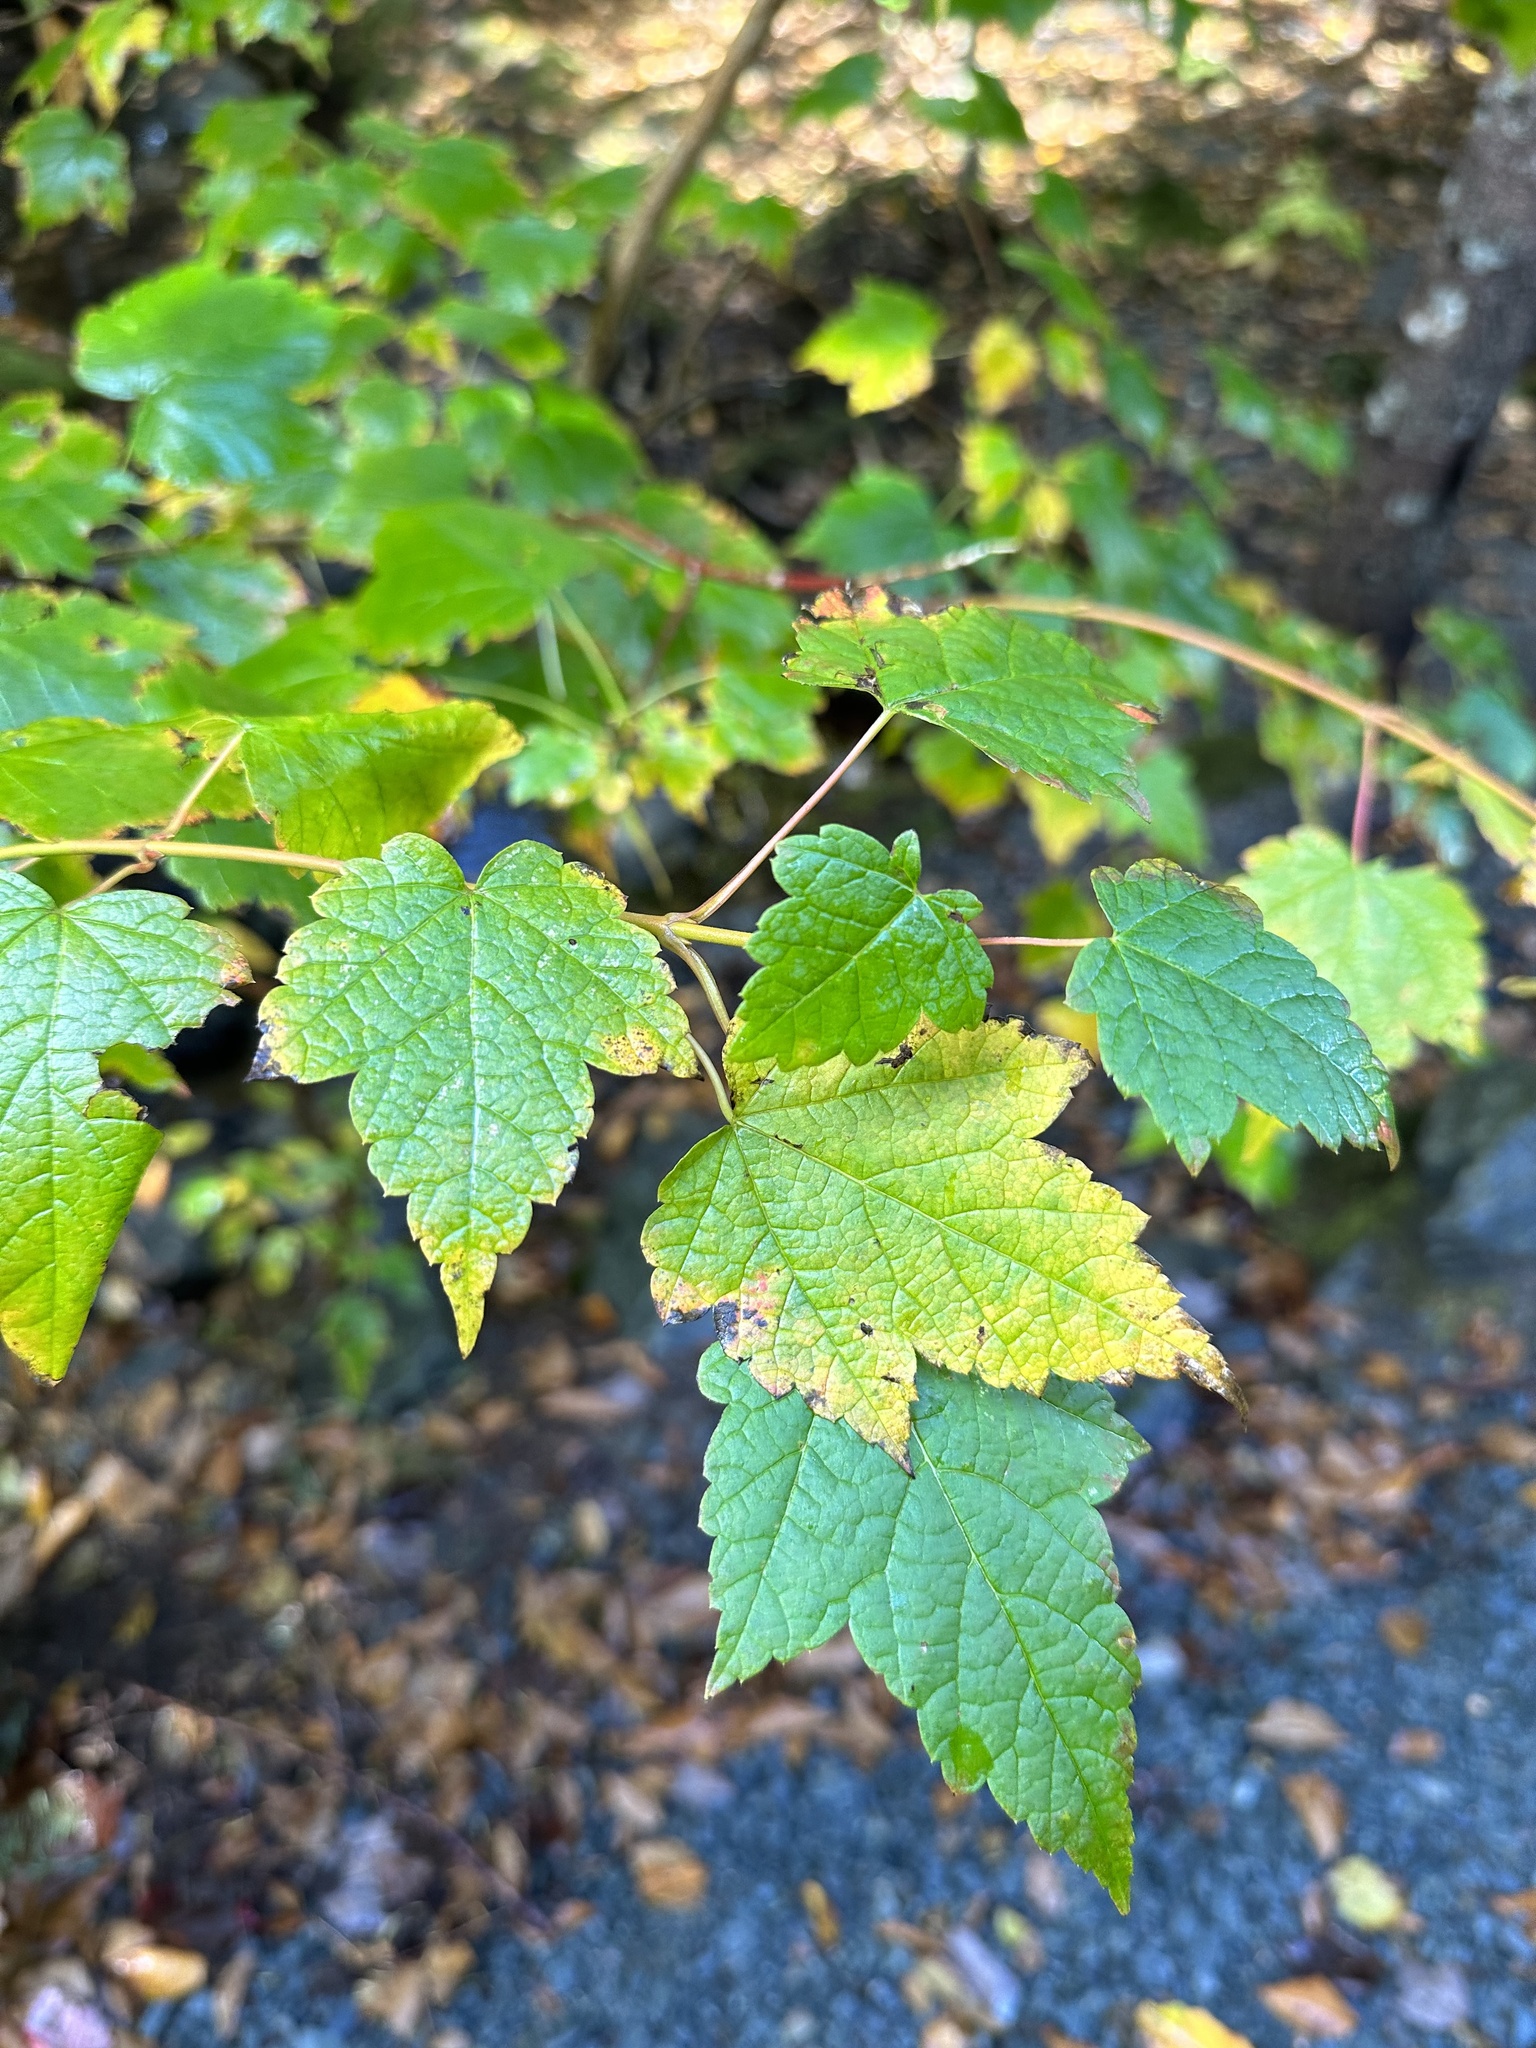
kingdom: Plantae
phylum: Tracheophyta
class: Magnoliopsida
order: Sapindales
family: Sapindaceae
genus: Acer
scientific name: Acer spicatum
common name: Mountain maple
